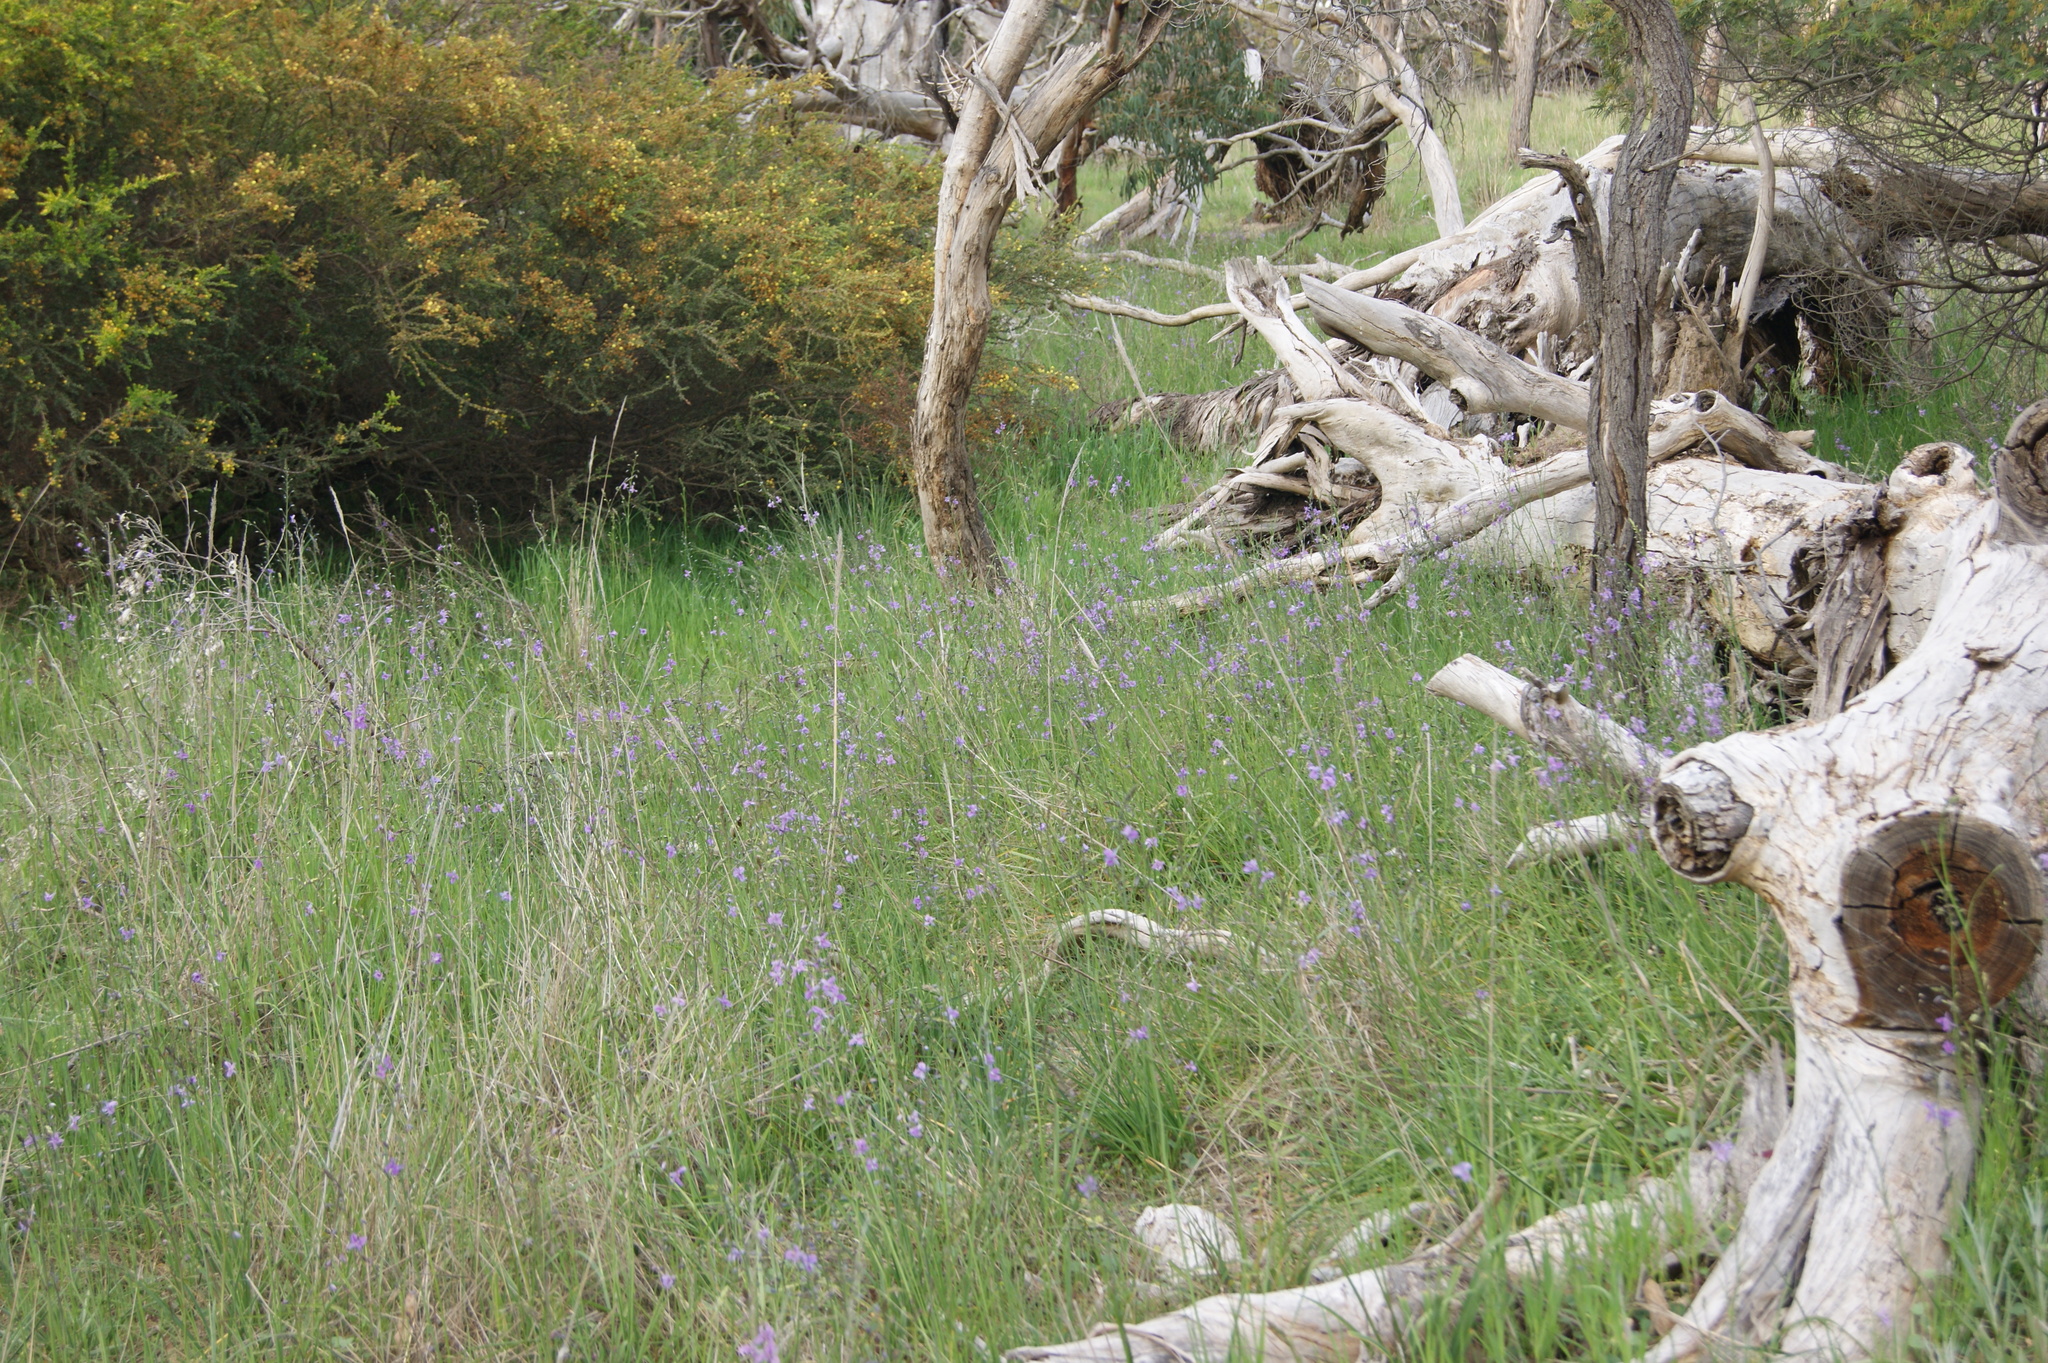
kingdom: Plantae
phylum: Tracheophyta
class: Liliopsida
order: Asparagales
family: Asparagaceae
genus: Arthropodium
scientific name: Arthropodium strictum
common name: Chocolate-lily
